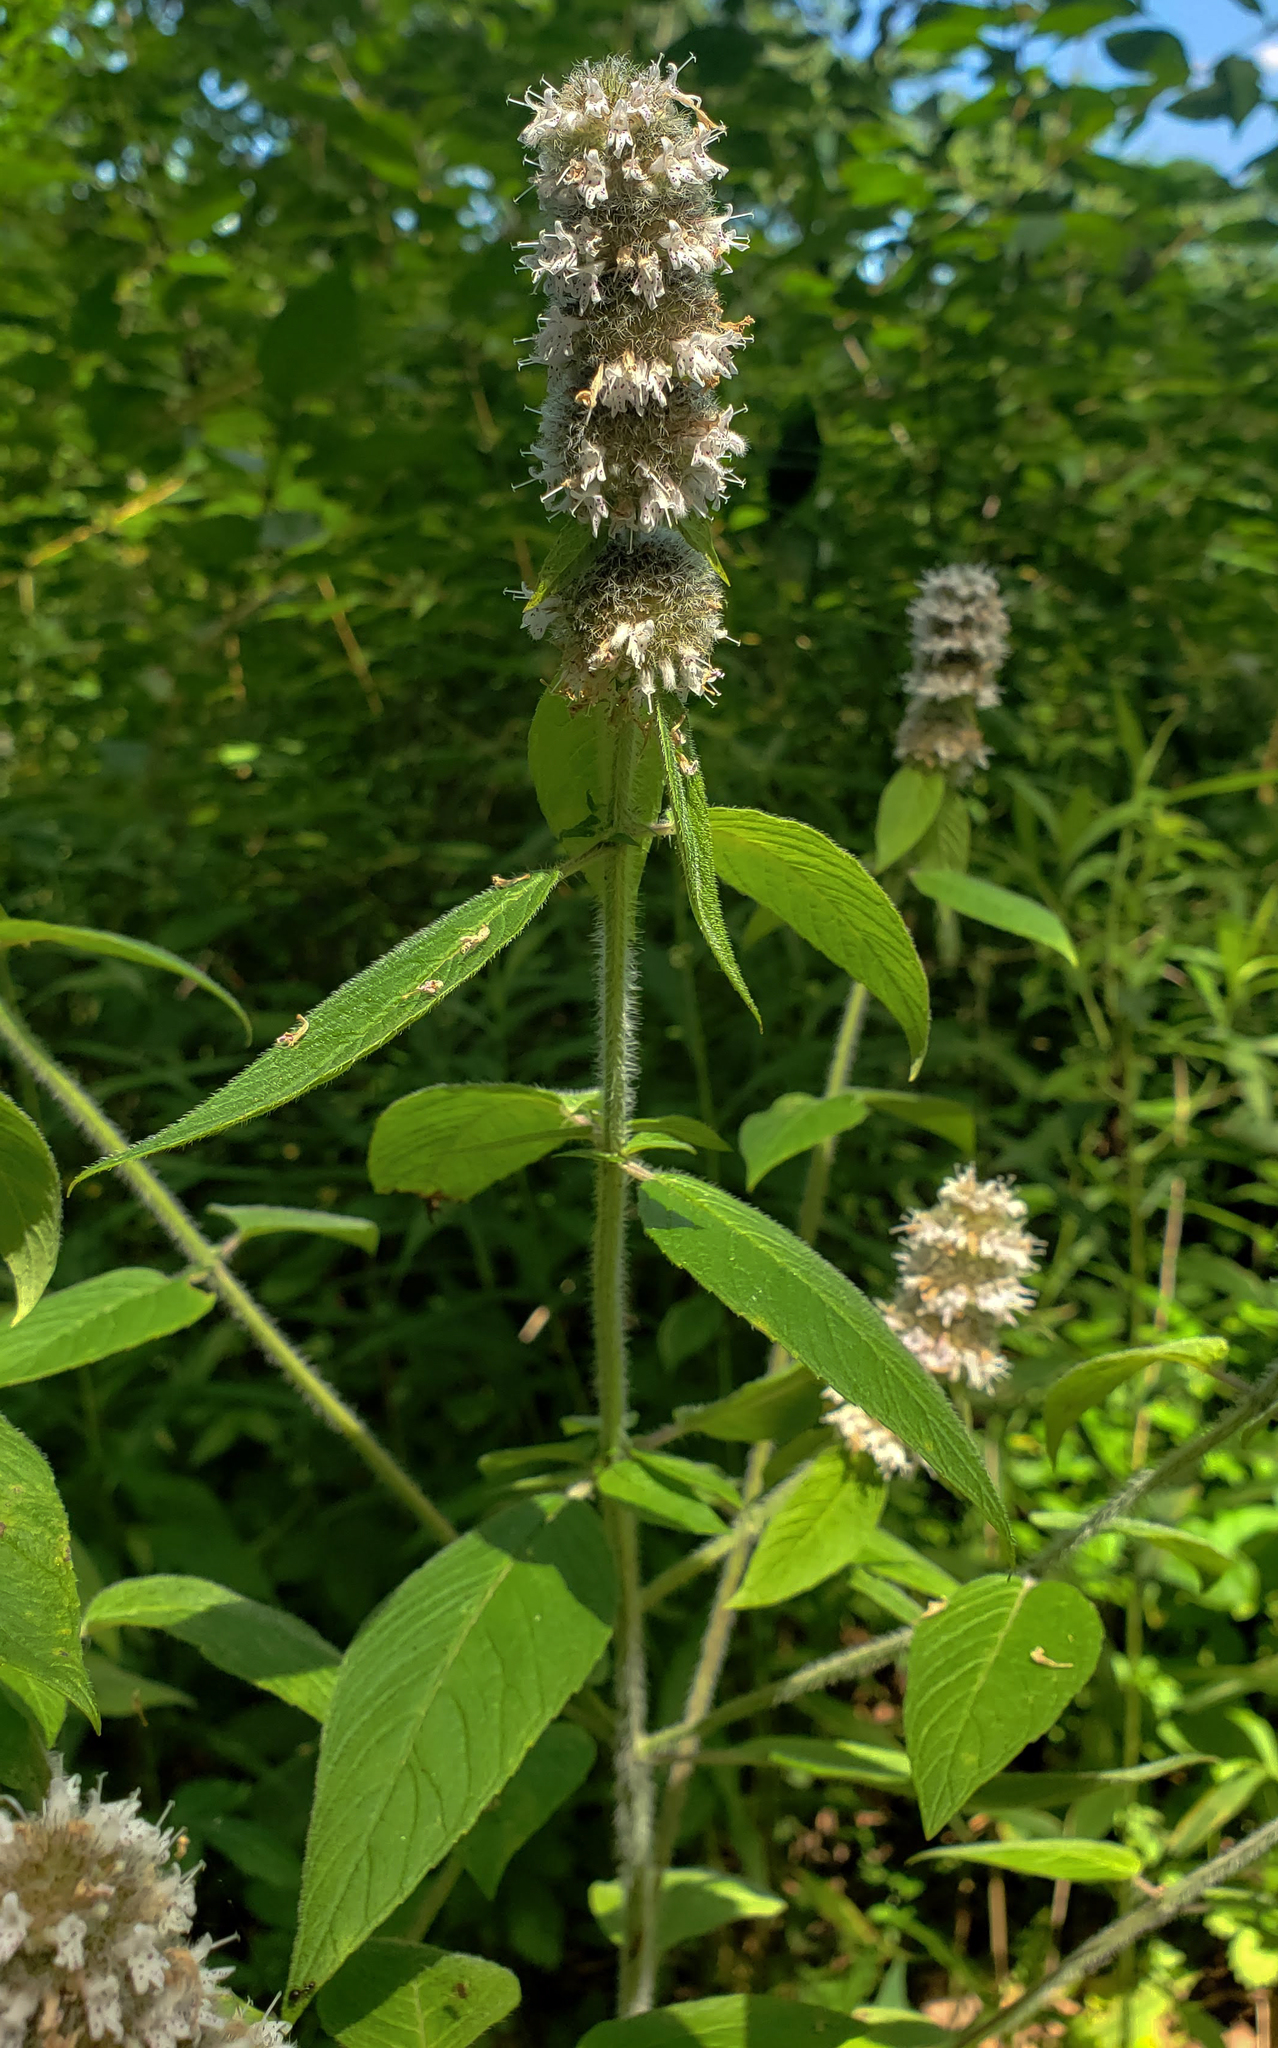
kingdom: Plantae
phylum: Tracheophyta
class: Magnoliopsida
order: Lamiales
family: Lamiaceae
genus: Blephilia
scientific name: Blephilia hirsuta
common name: Hairy blephilia
